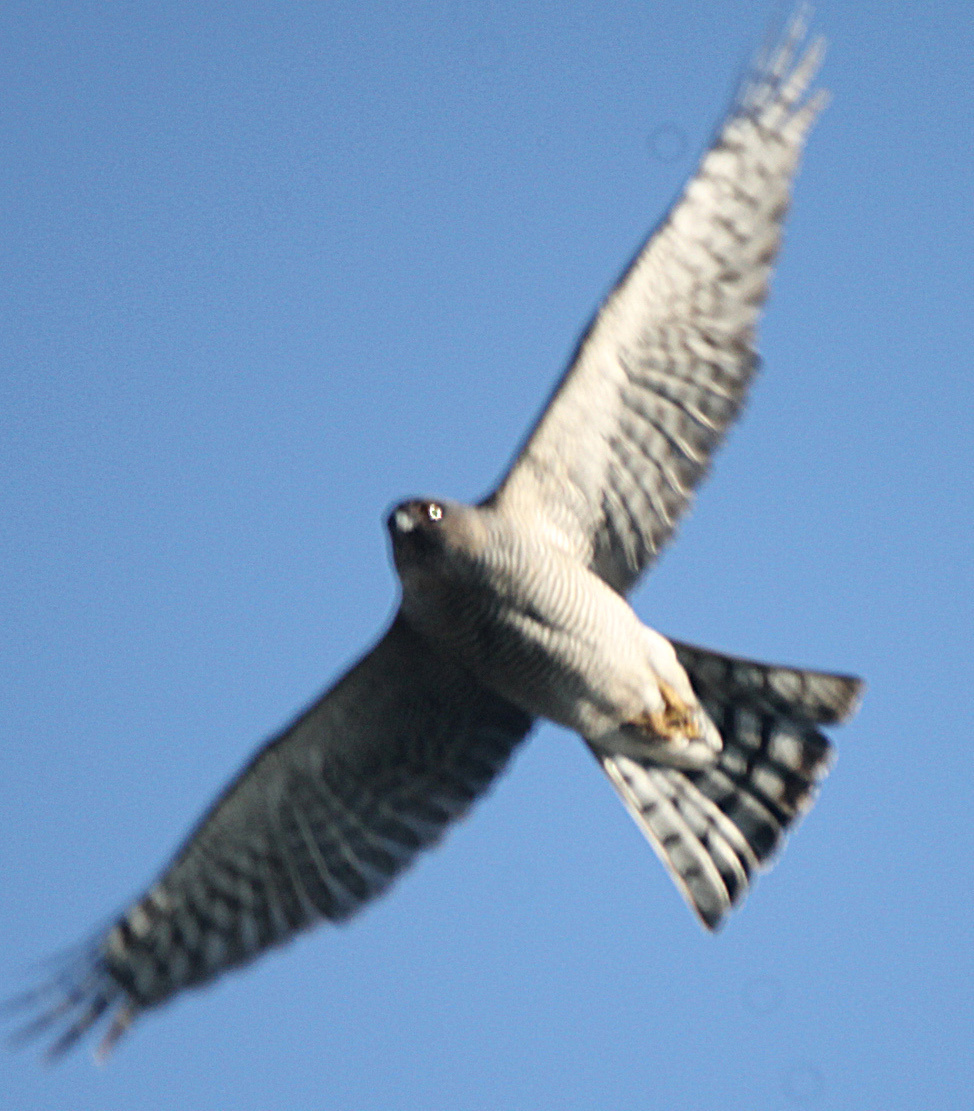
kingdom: Animalia
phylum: Chordata
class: Aves
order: Accipitriformes
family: Accipitridae
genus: Accipiter
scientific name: Accipiter nisus
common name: Eurasian sparrowhawk
